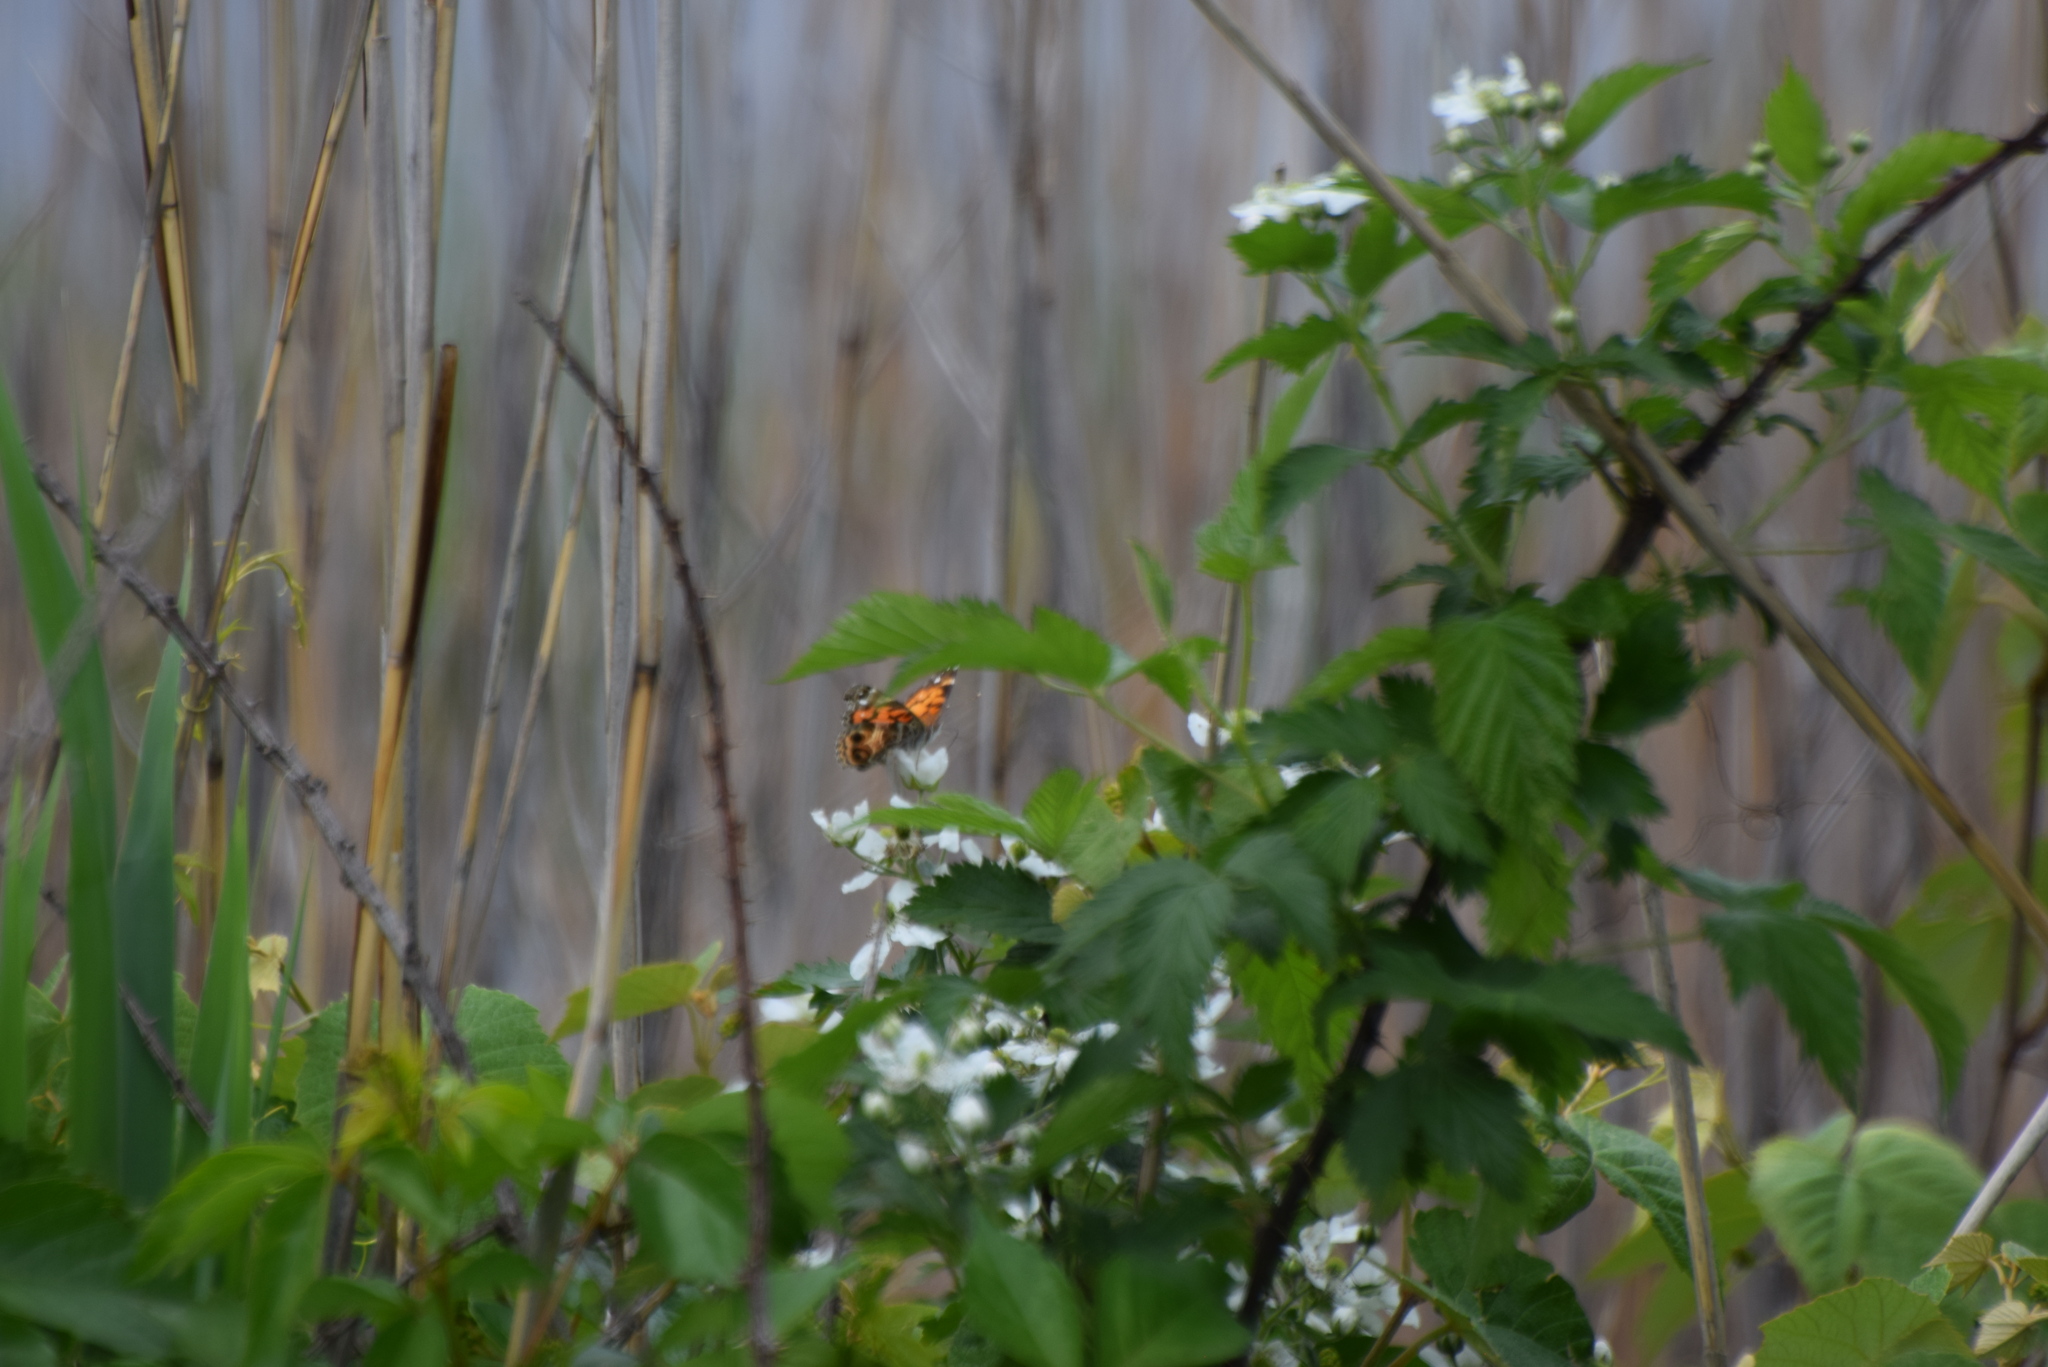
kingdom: Animalia
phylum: Arthropoda
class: Insecta
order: Lepidoptera
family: Nymphalidae
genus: Vanessa
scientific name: Vanessa virginiensis
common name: American lady
